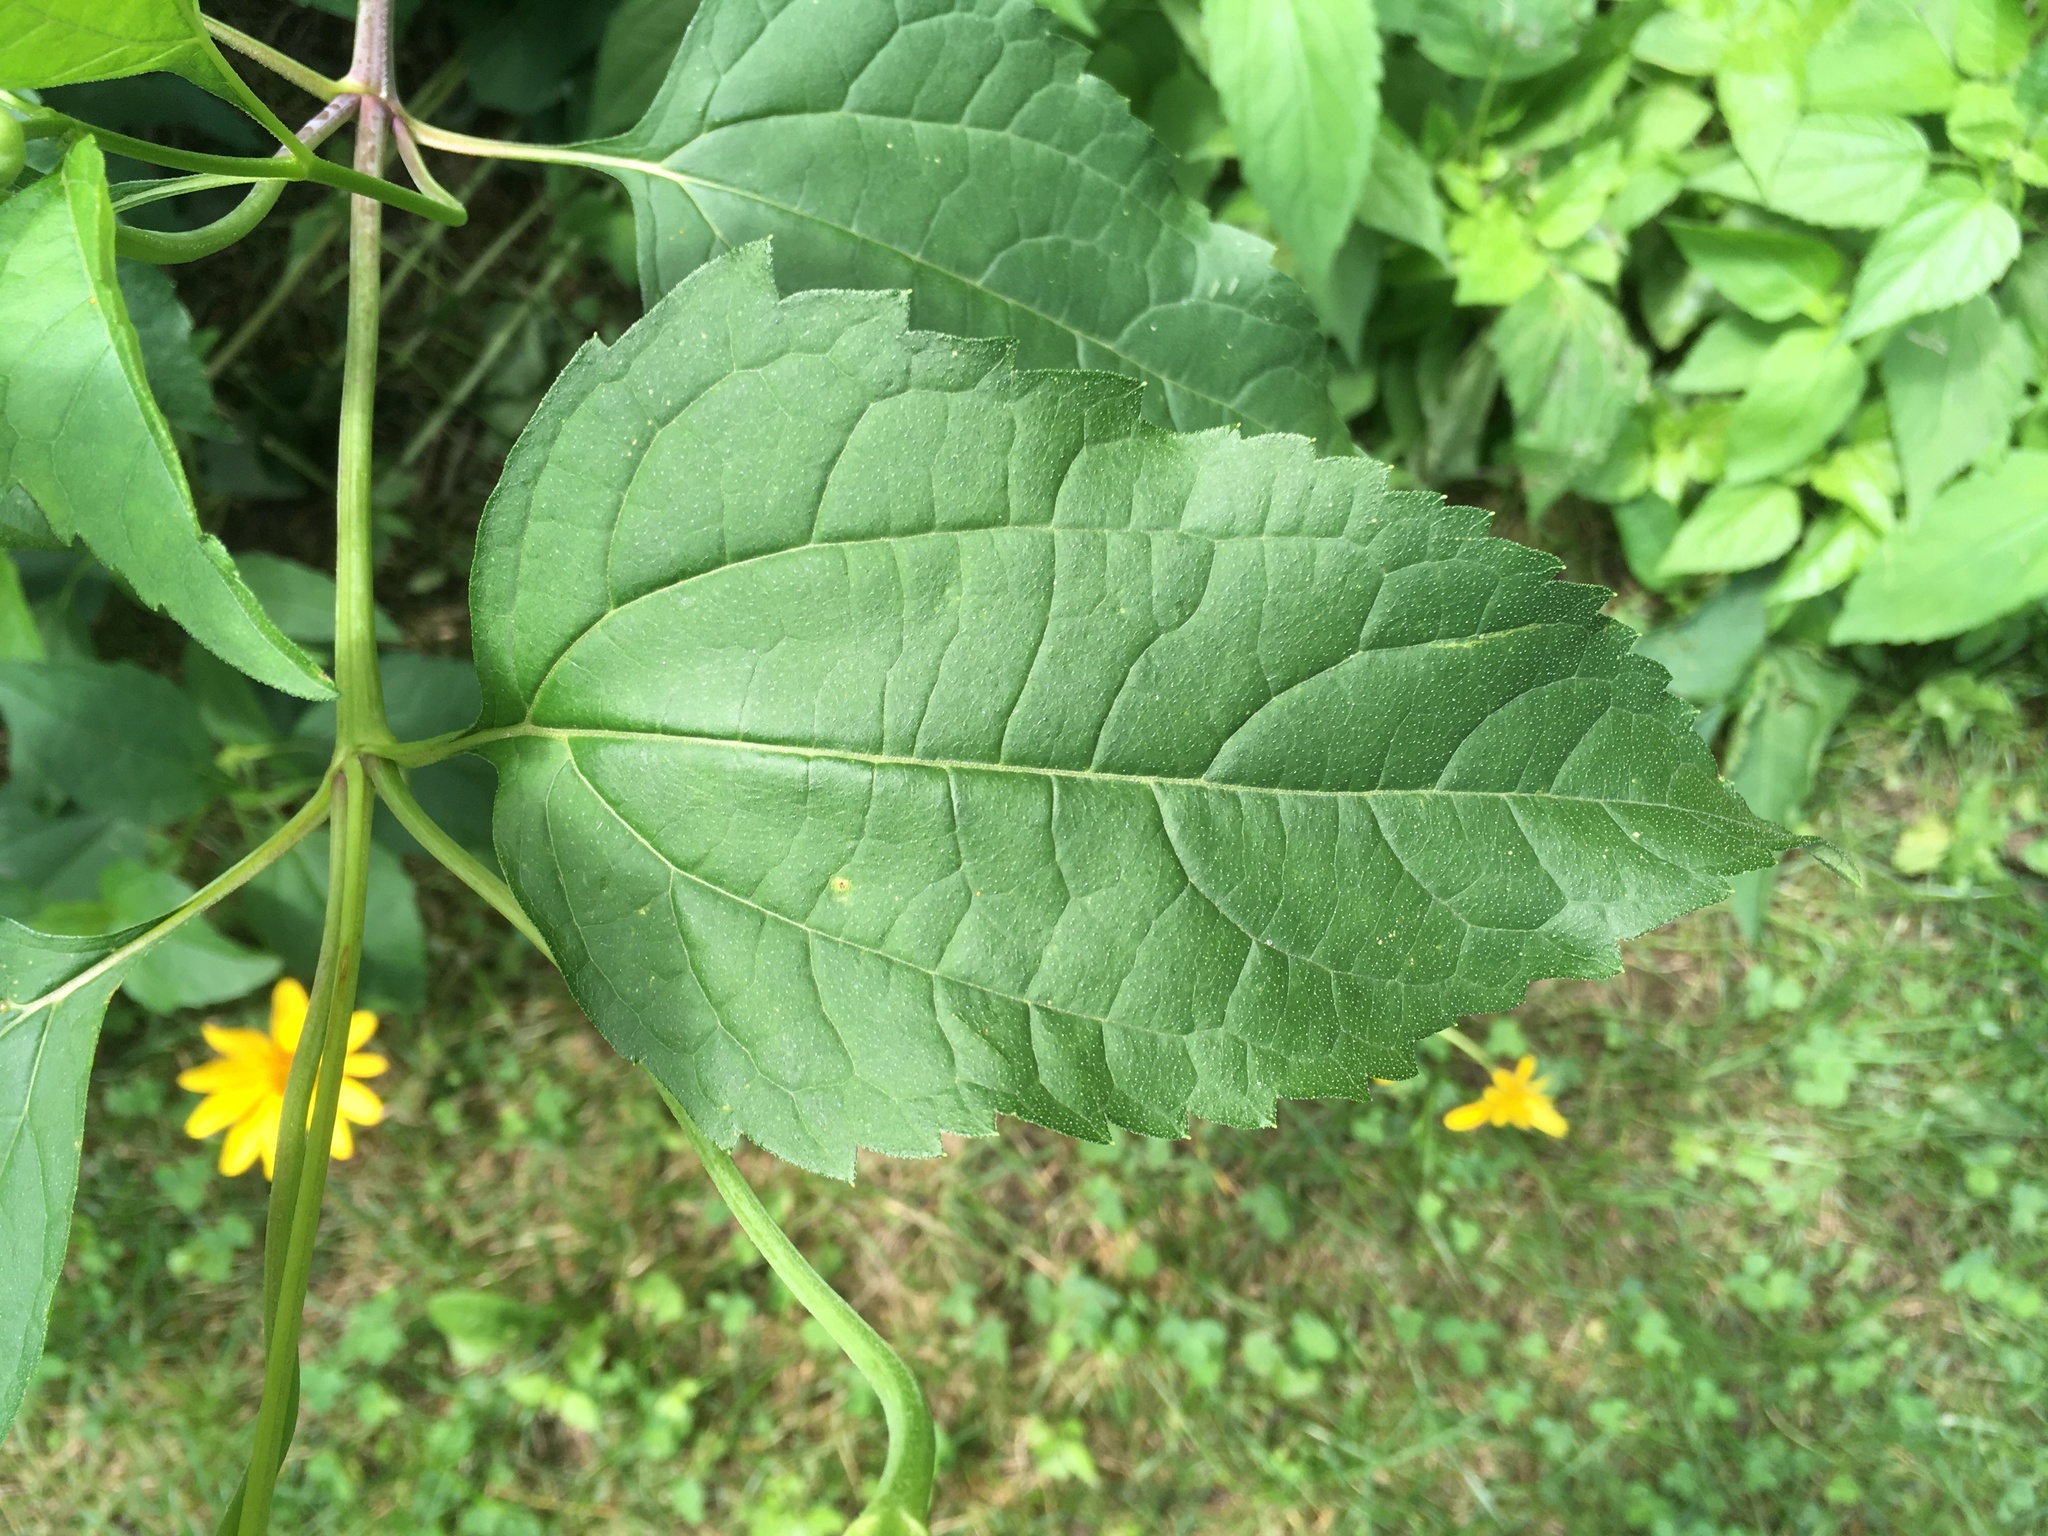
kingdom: Plantae
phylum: Tracheophyta
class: Magnoliopsida
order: Asterales
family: Asteraceae
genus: Heliopsis
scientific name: Heliopsis helianthoides
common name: False sunflower
